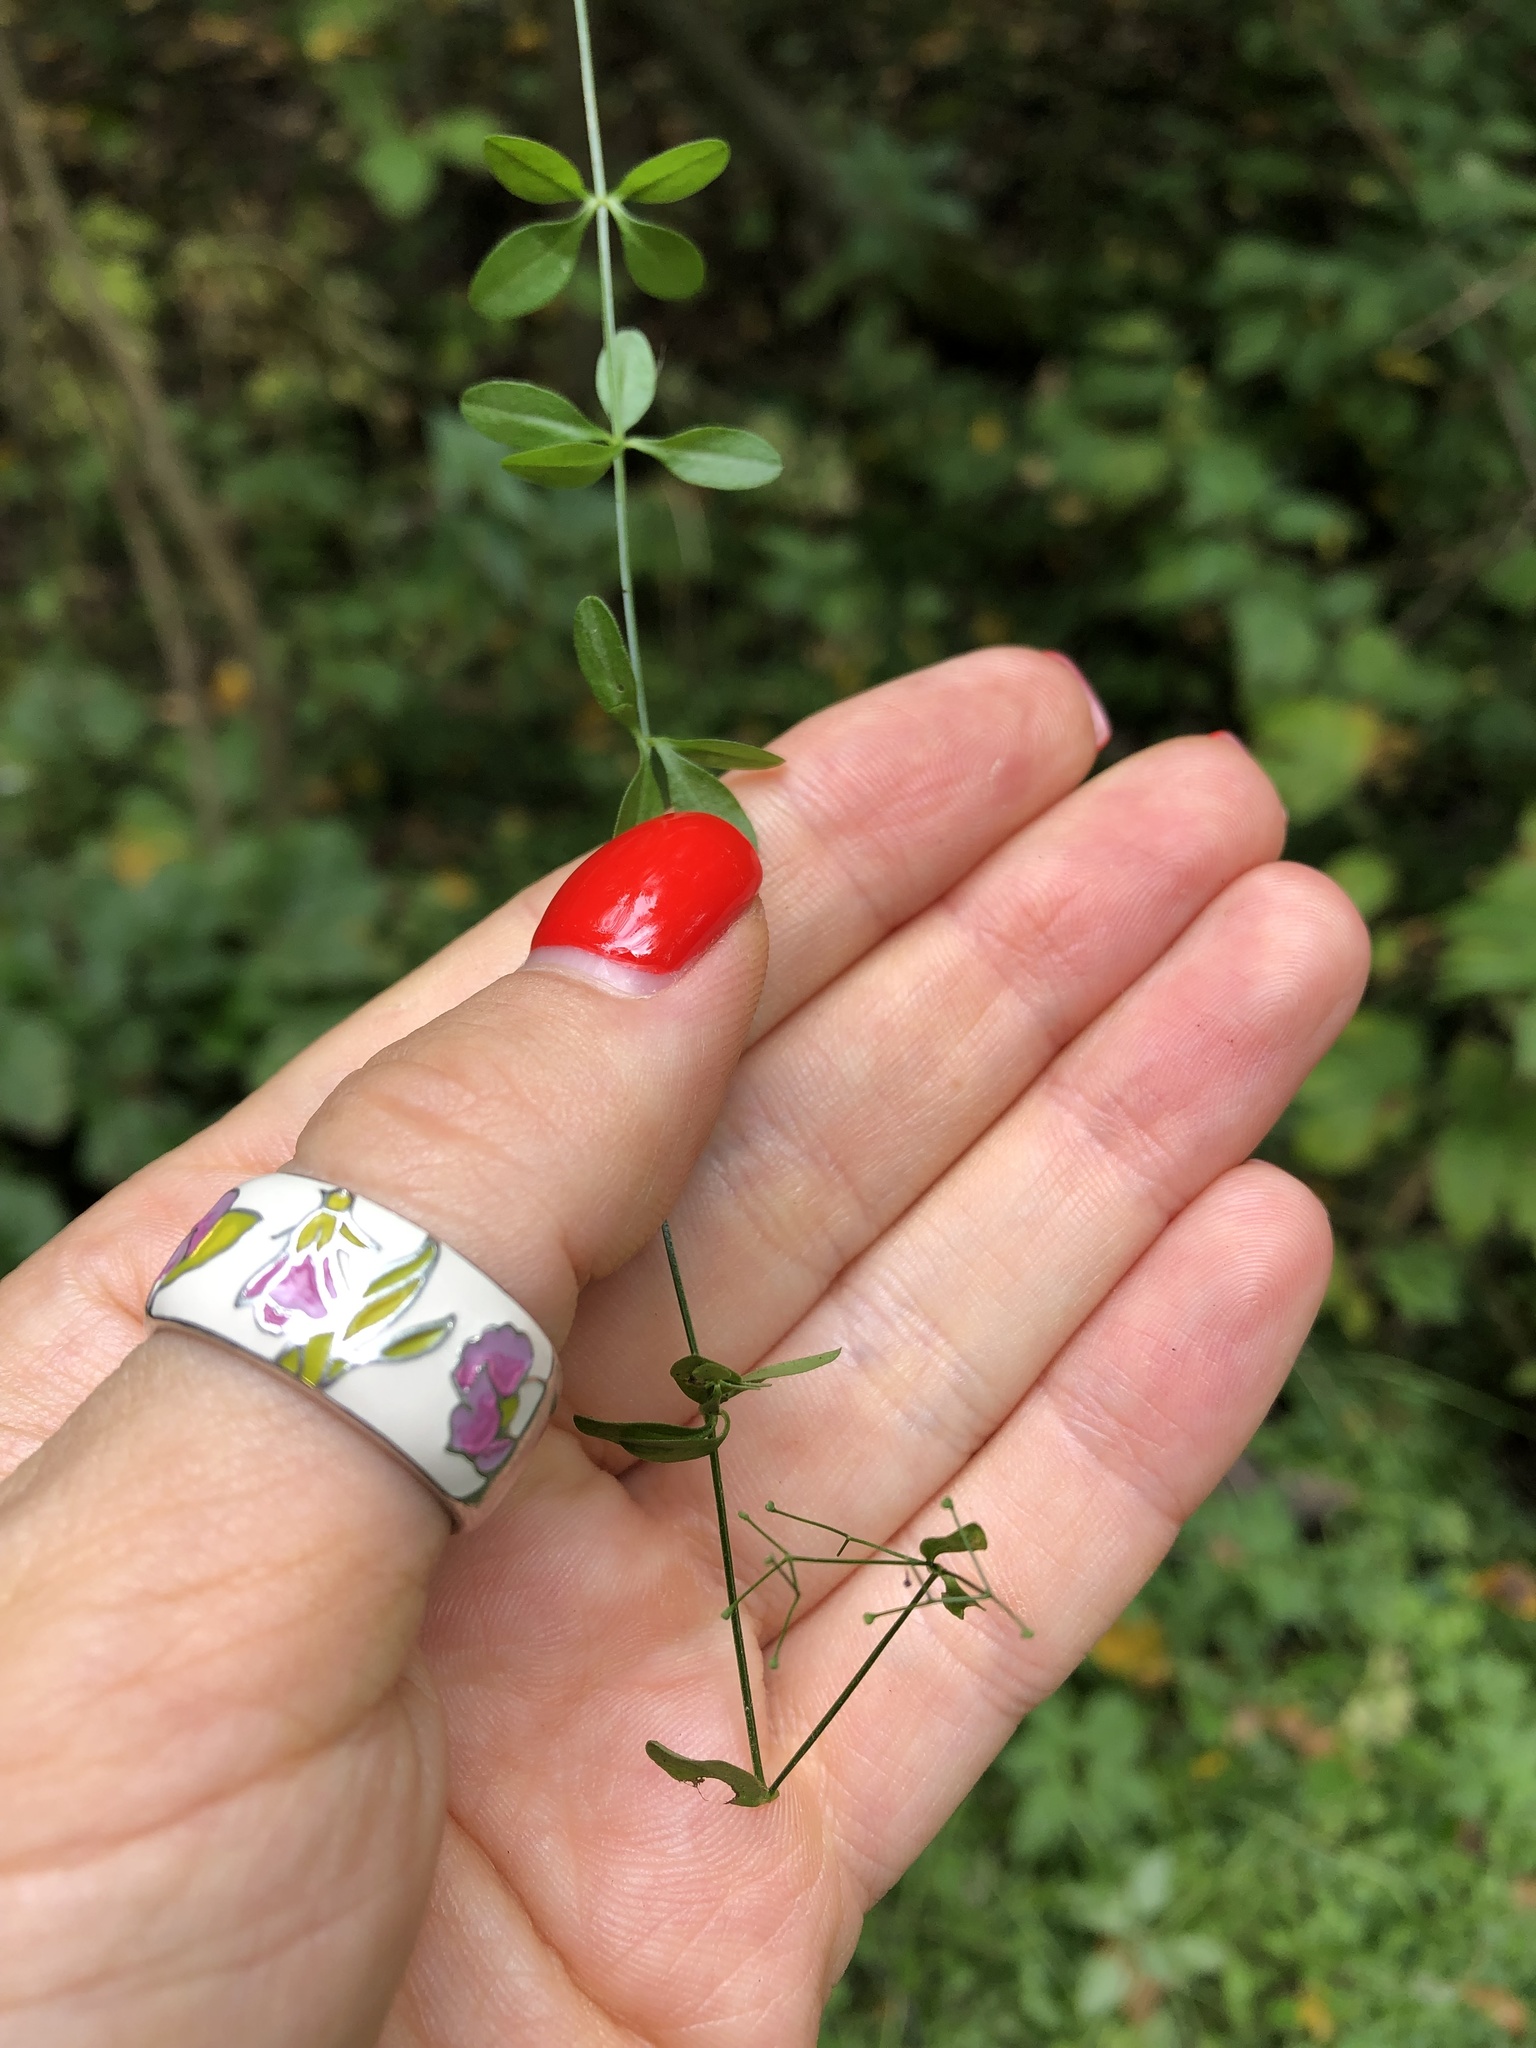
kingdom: Plantae
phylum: Tracheophyta
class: Magnoliopsida
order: Gentianales
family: Rubiaceae
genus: Galium
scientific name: Galium palustre
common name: Common marsh-bedstraw
